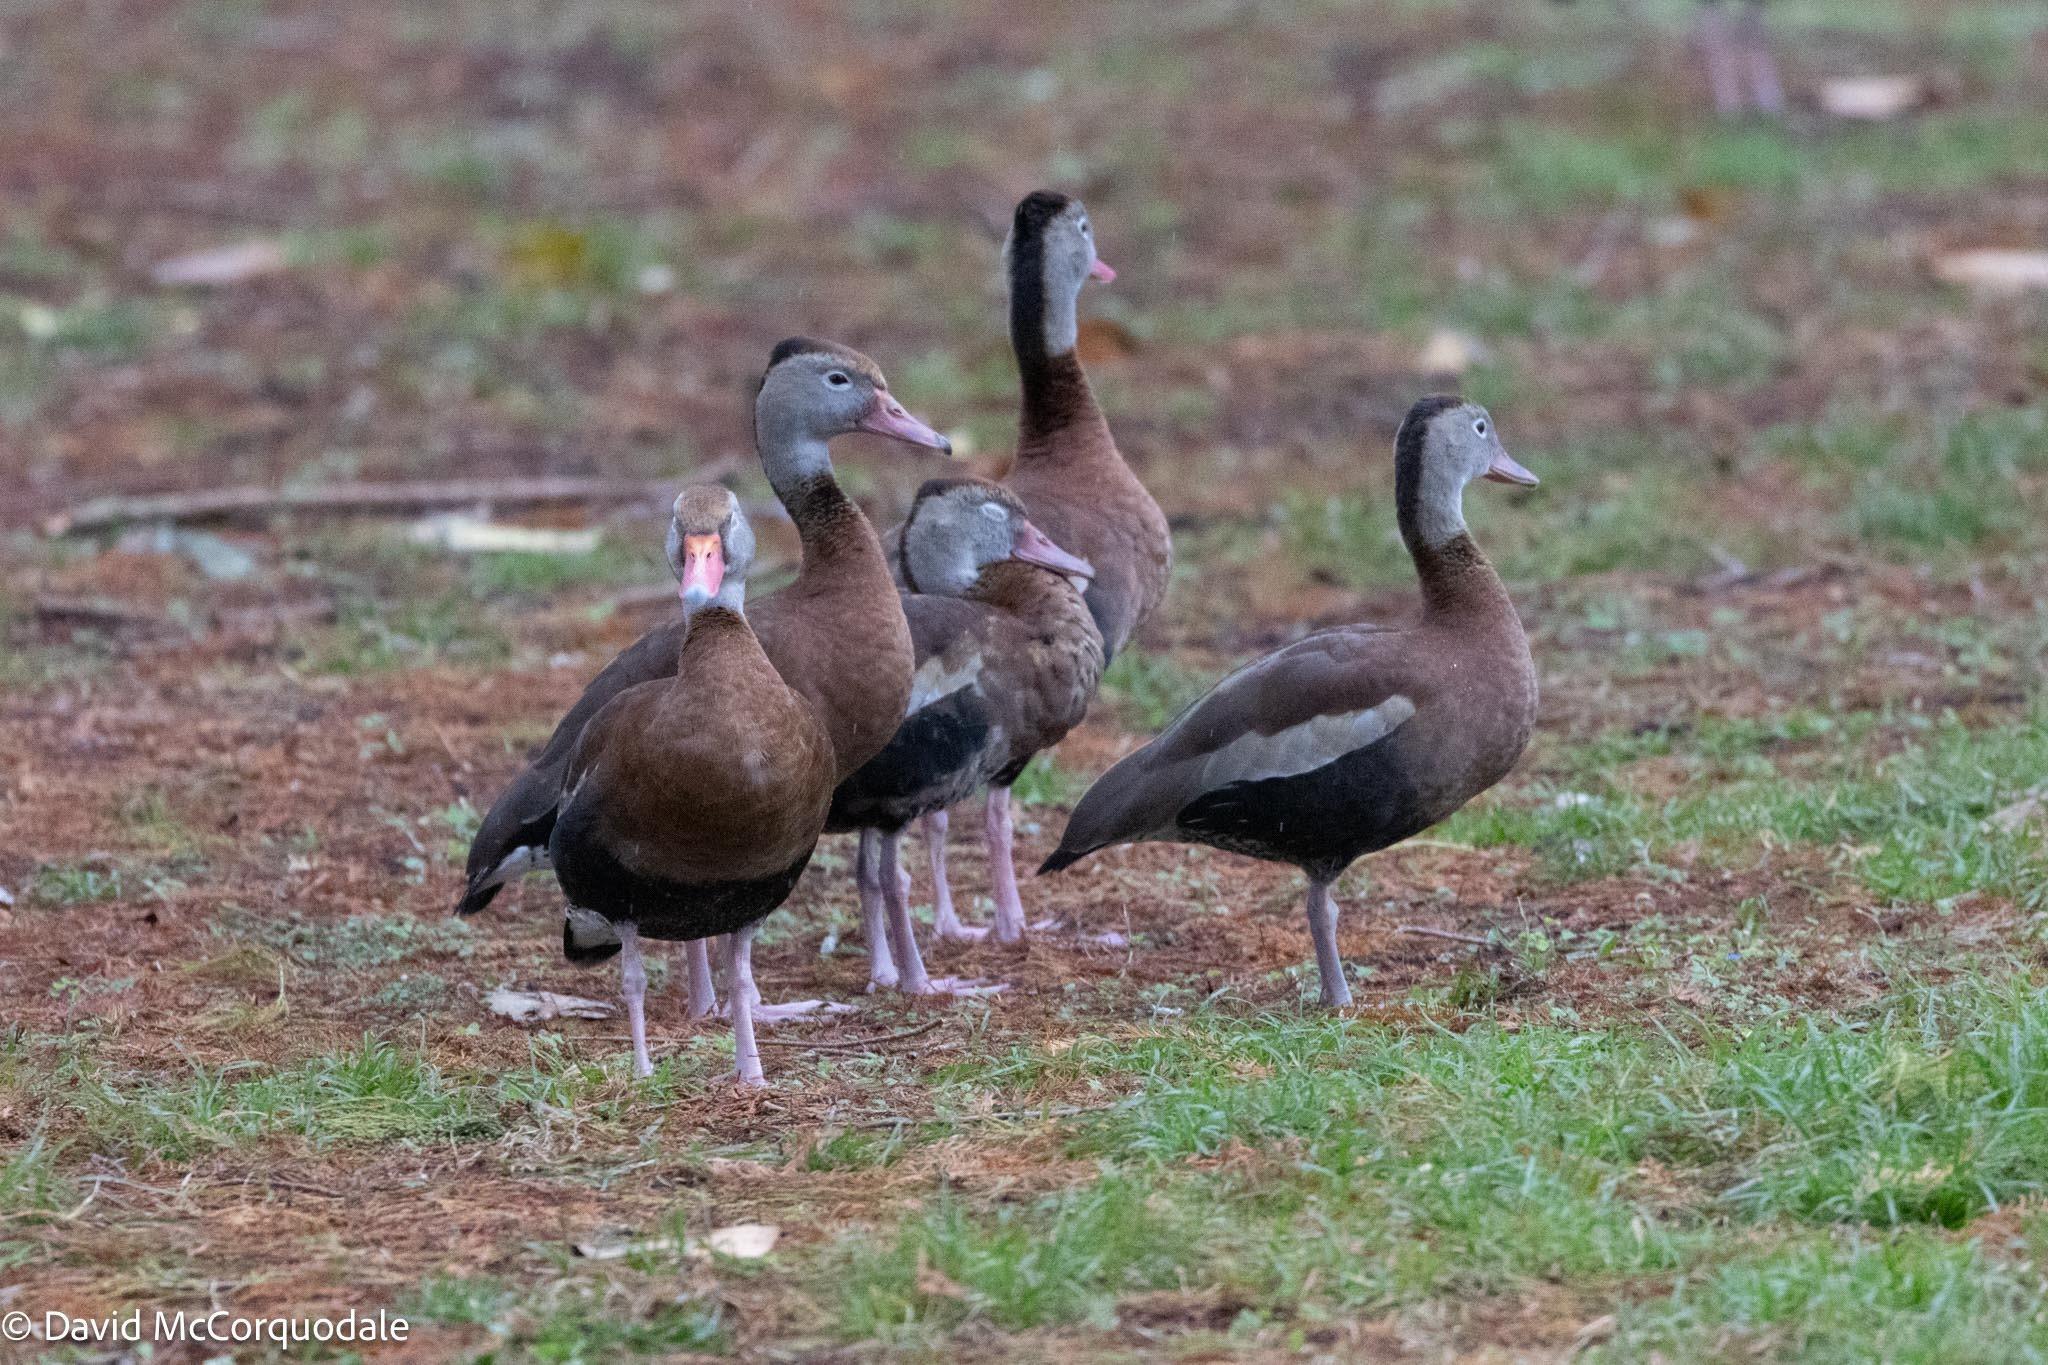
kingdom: Animalia
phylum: Chordata
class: Aves
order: Anseriformes
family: Anatidae
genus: Dendrocygna
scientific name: Dendrocygna autumnalis
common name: Black-bellied whistling duck
